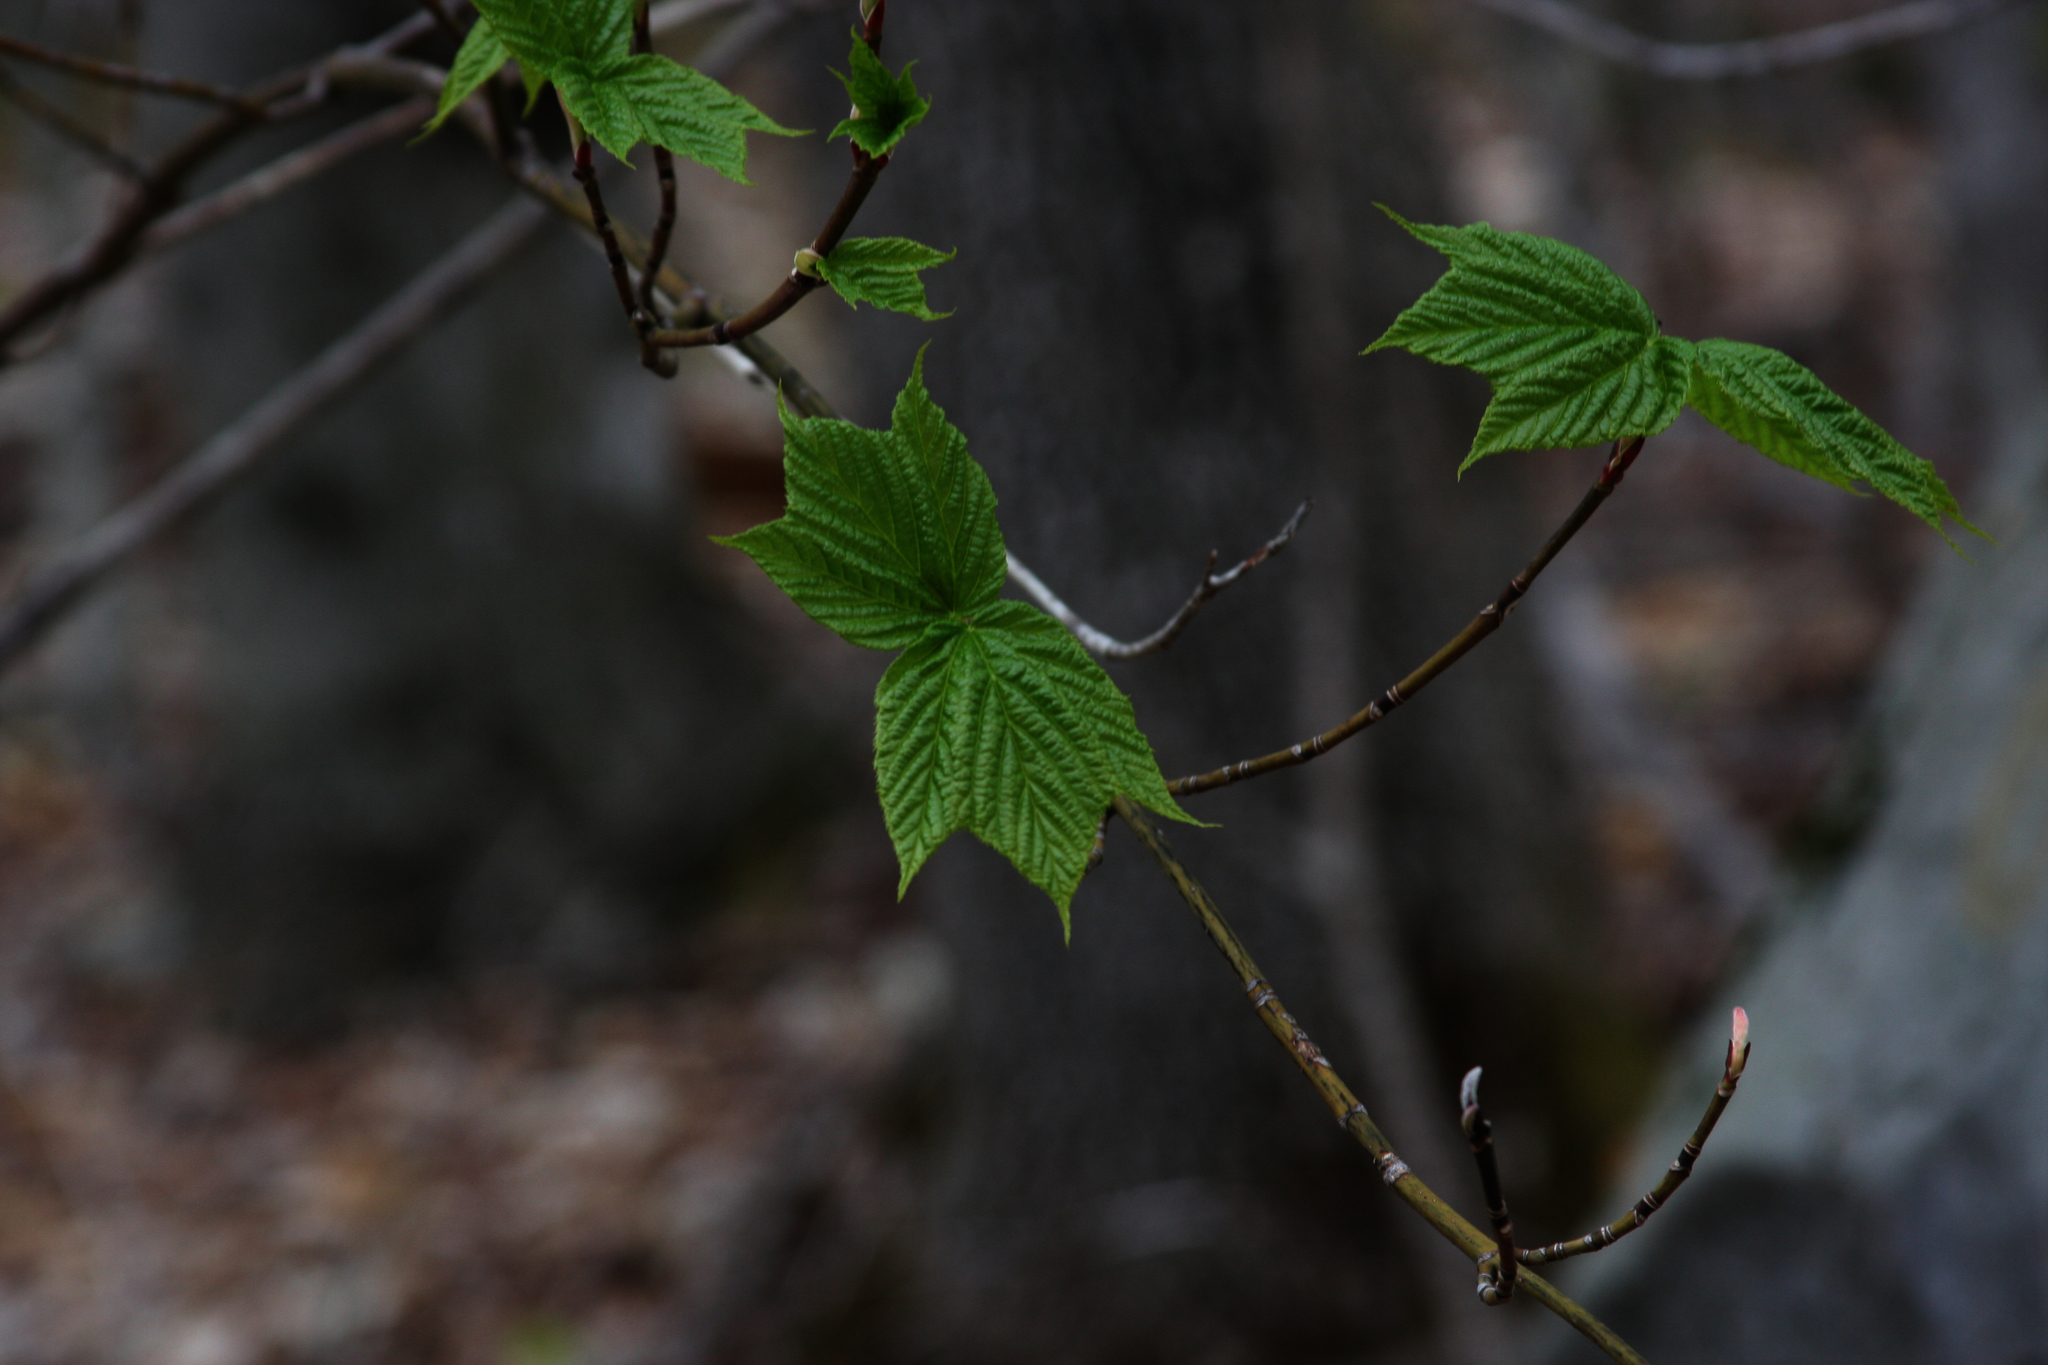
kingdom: Plantae
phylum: Tracheophyta
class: Magnoliopsida
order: Sapindales
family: Sapindaceae
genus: Acer
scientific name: Acer pensylvanicum
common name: Moosewood
